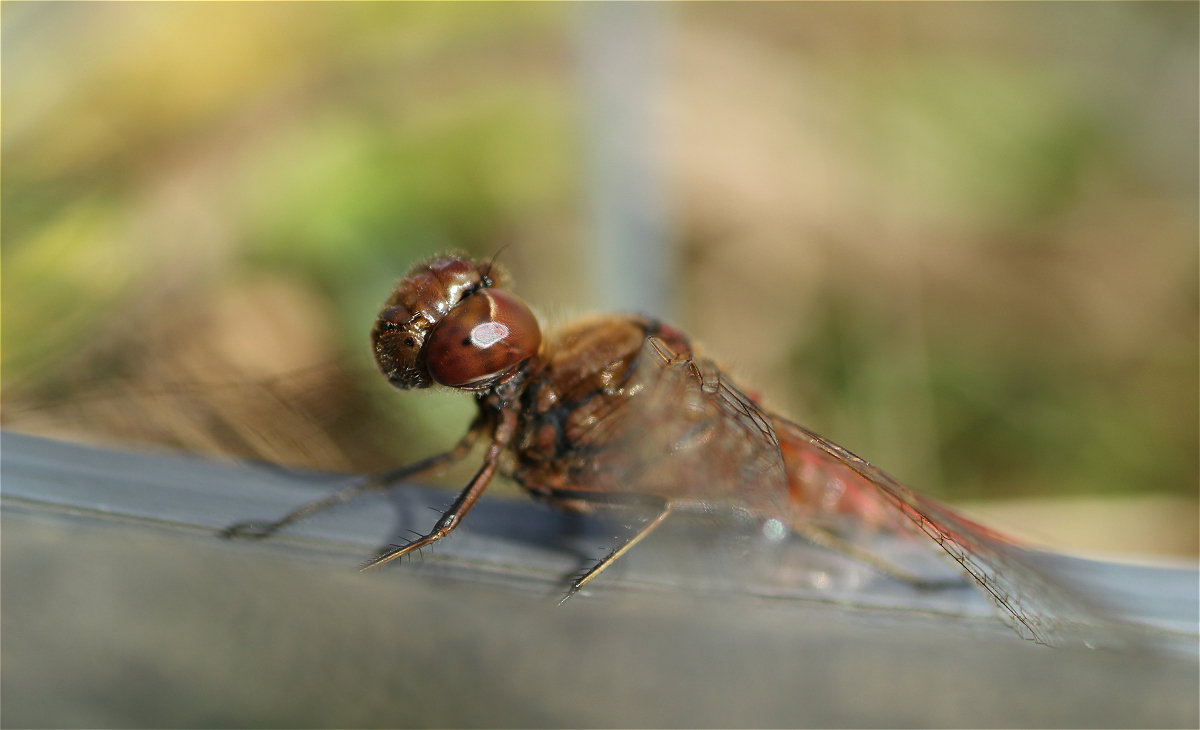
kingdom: Animalia
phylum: Arthropoda
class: Insecta
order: Odonata
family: Libellulidae
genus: Sympetrum
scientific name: Sympetrum vulgatum
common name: Vagrant darter
